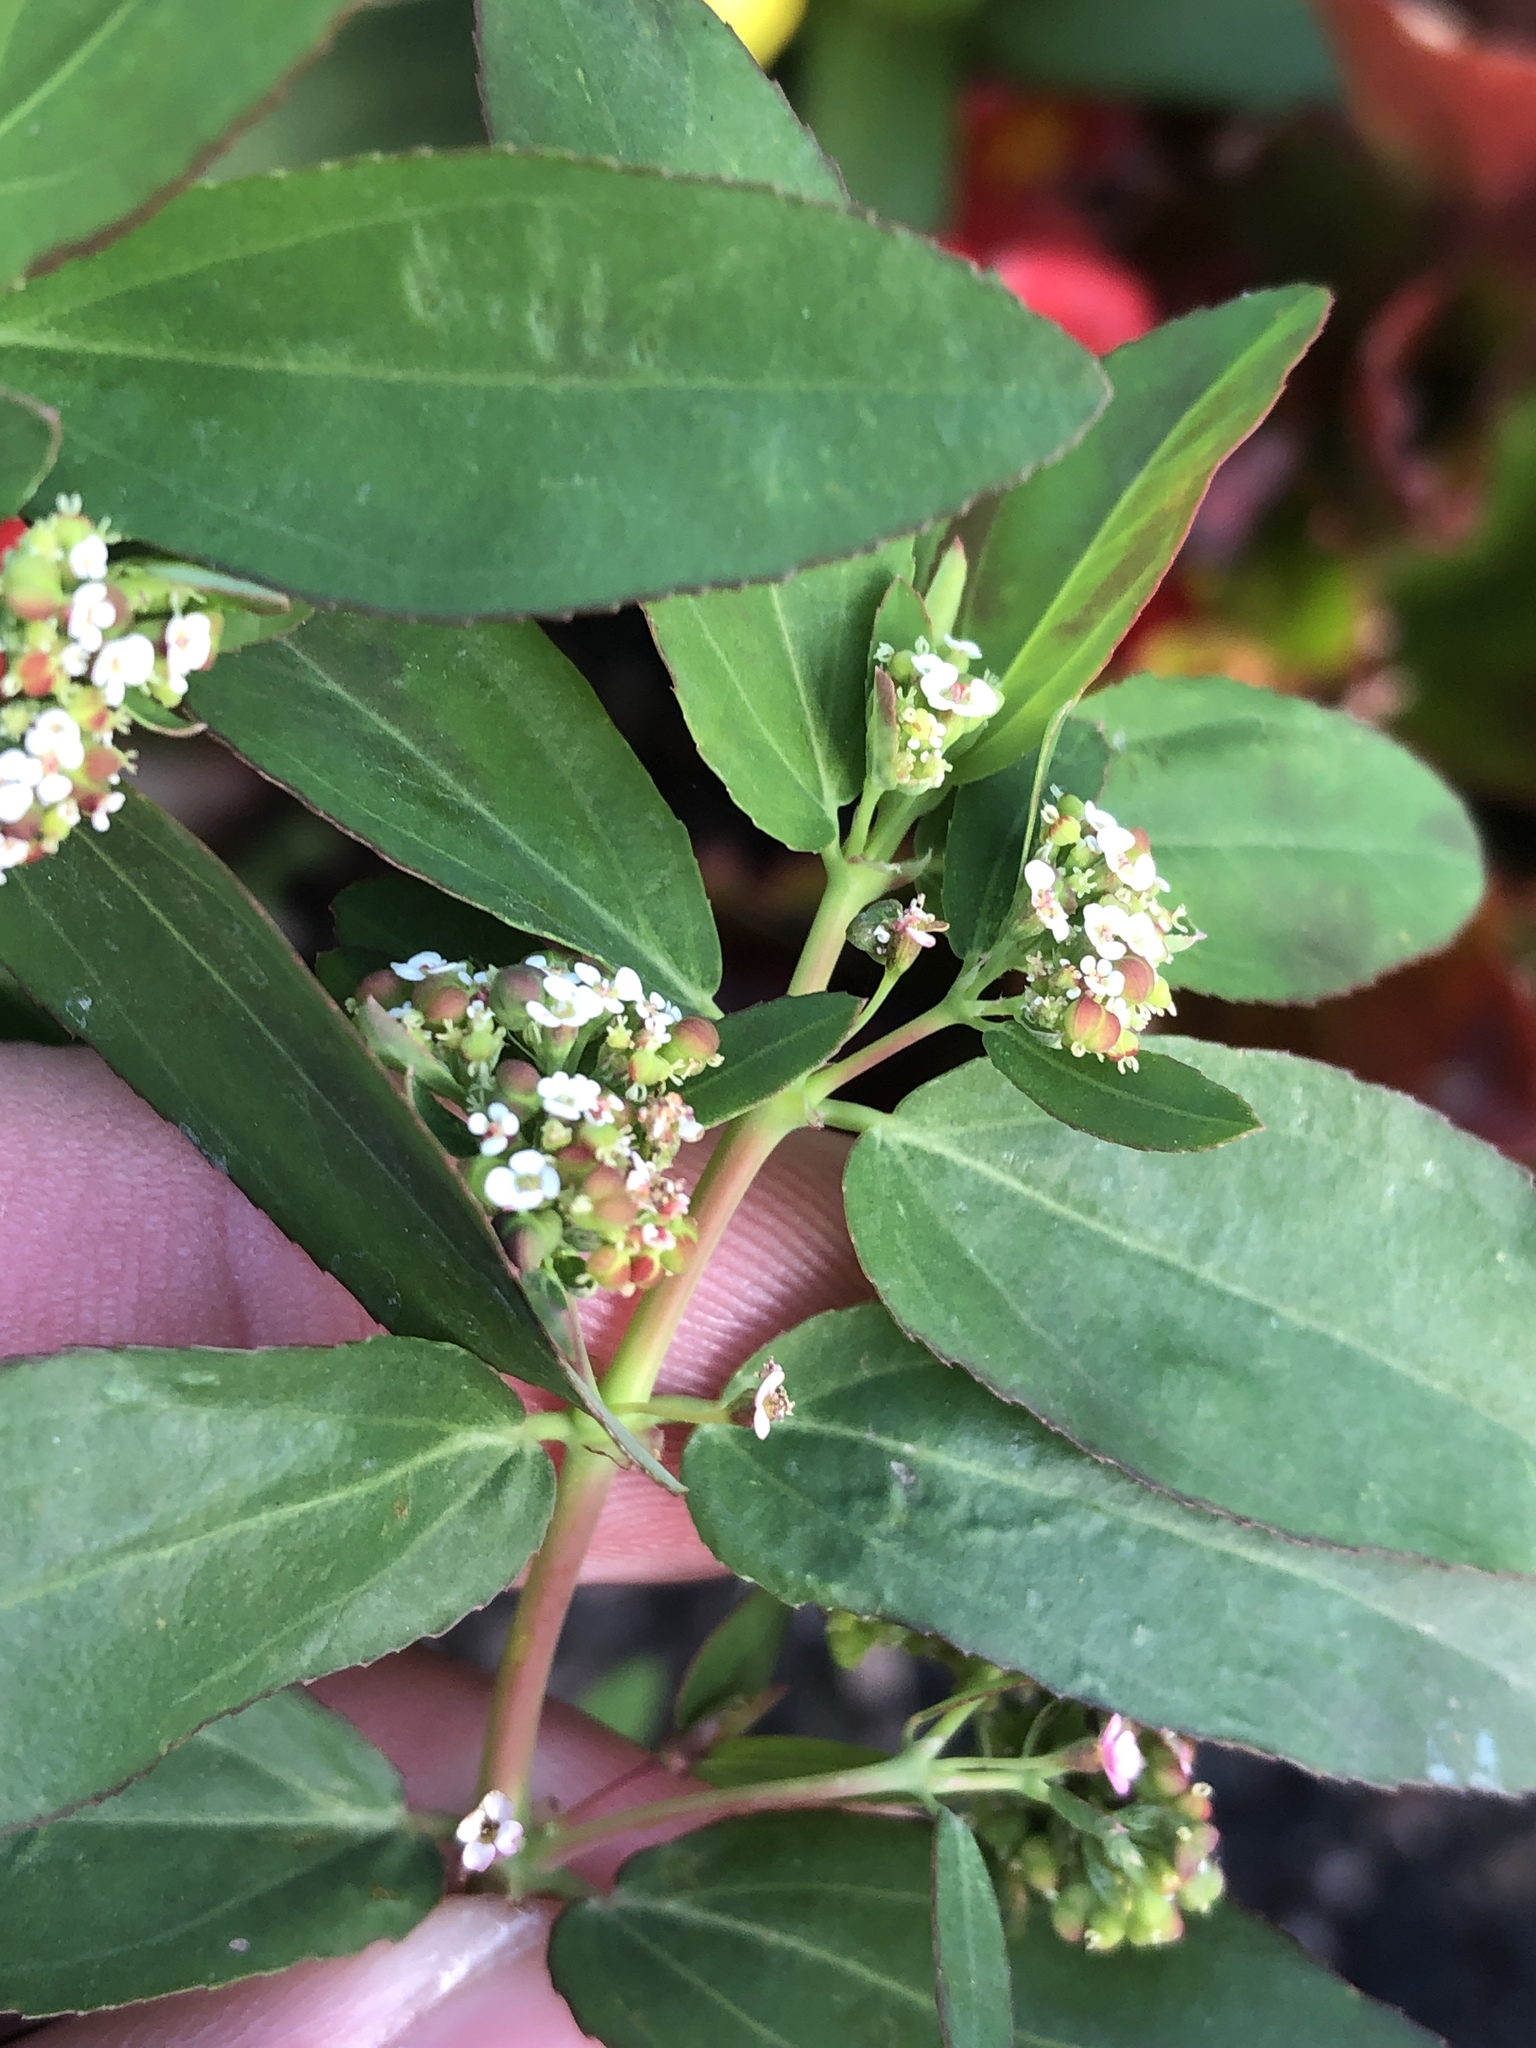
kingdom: Plantae
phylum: Tracheophyta
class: Magnoliopsida
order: Malpighiales
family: Euphorbiaceae
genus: Euphorbia
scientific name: Euphorbia hypericifolia
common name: Graceful sandmat
